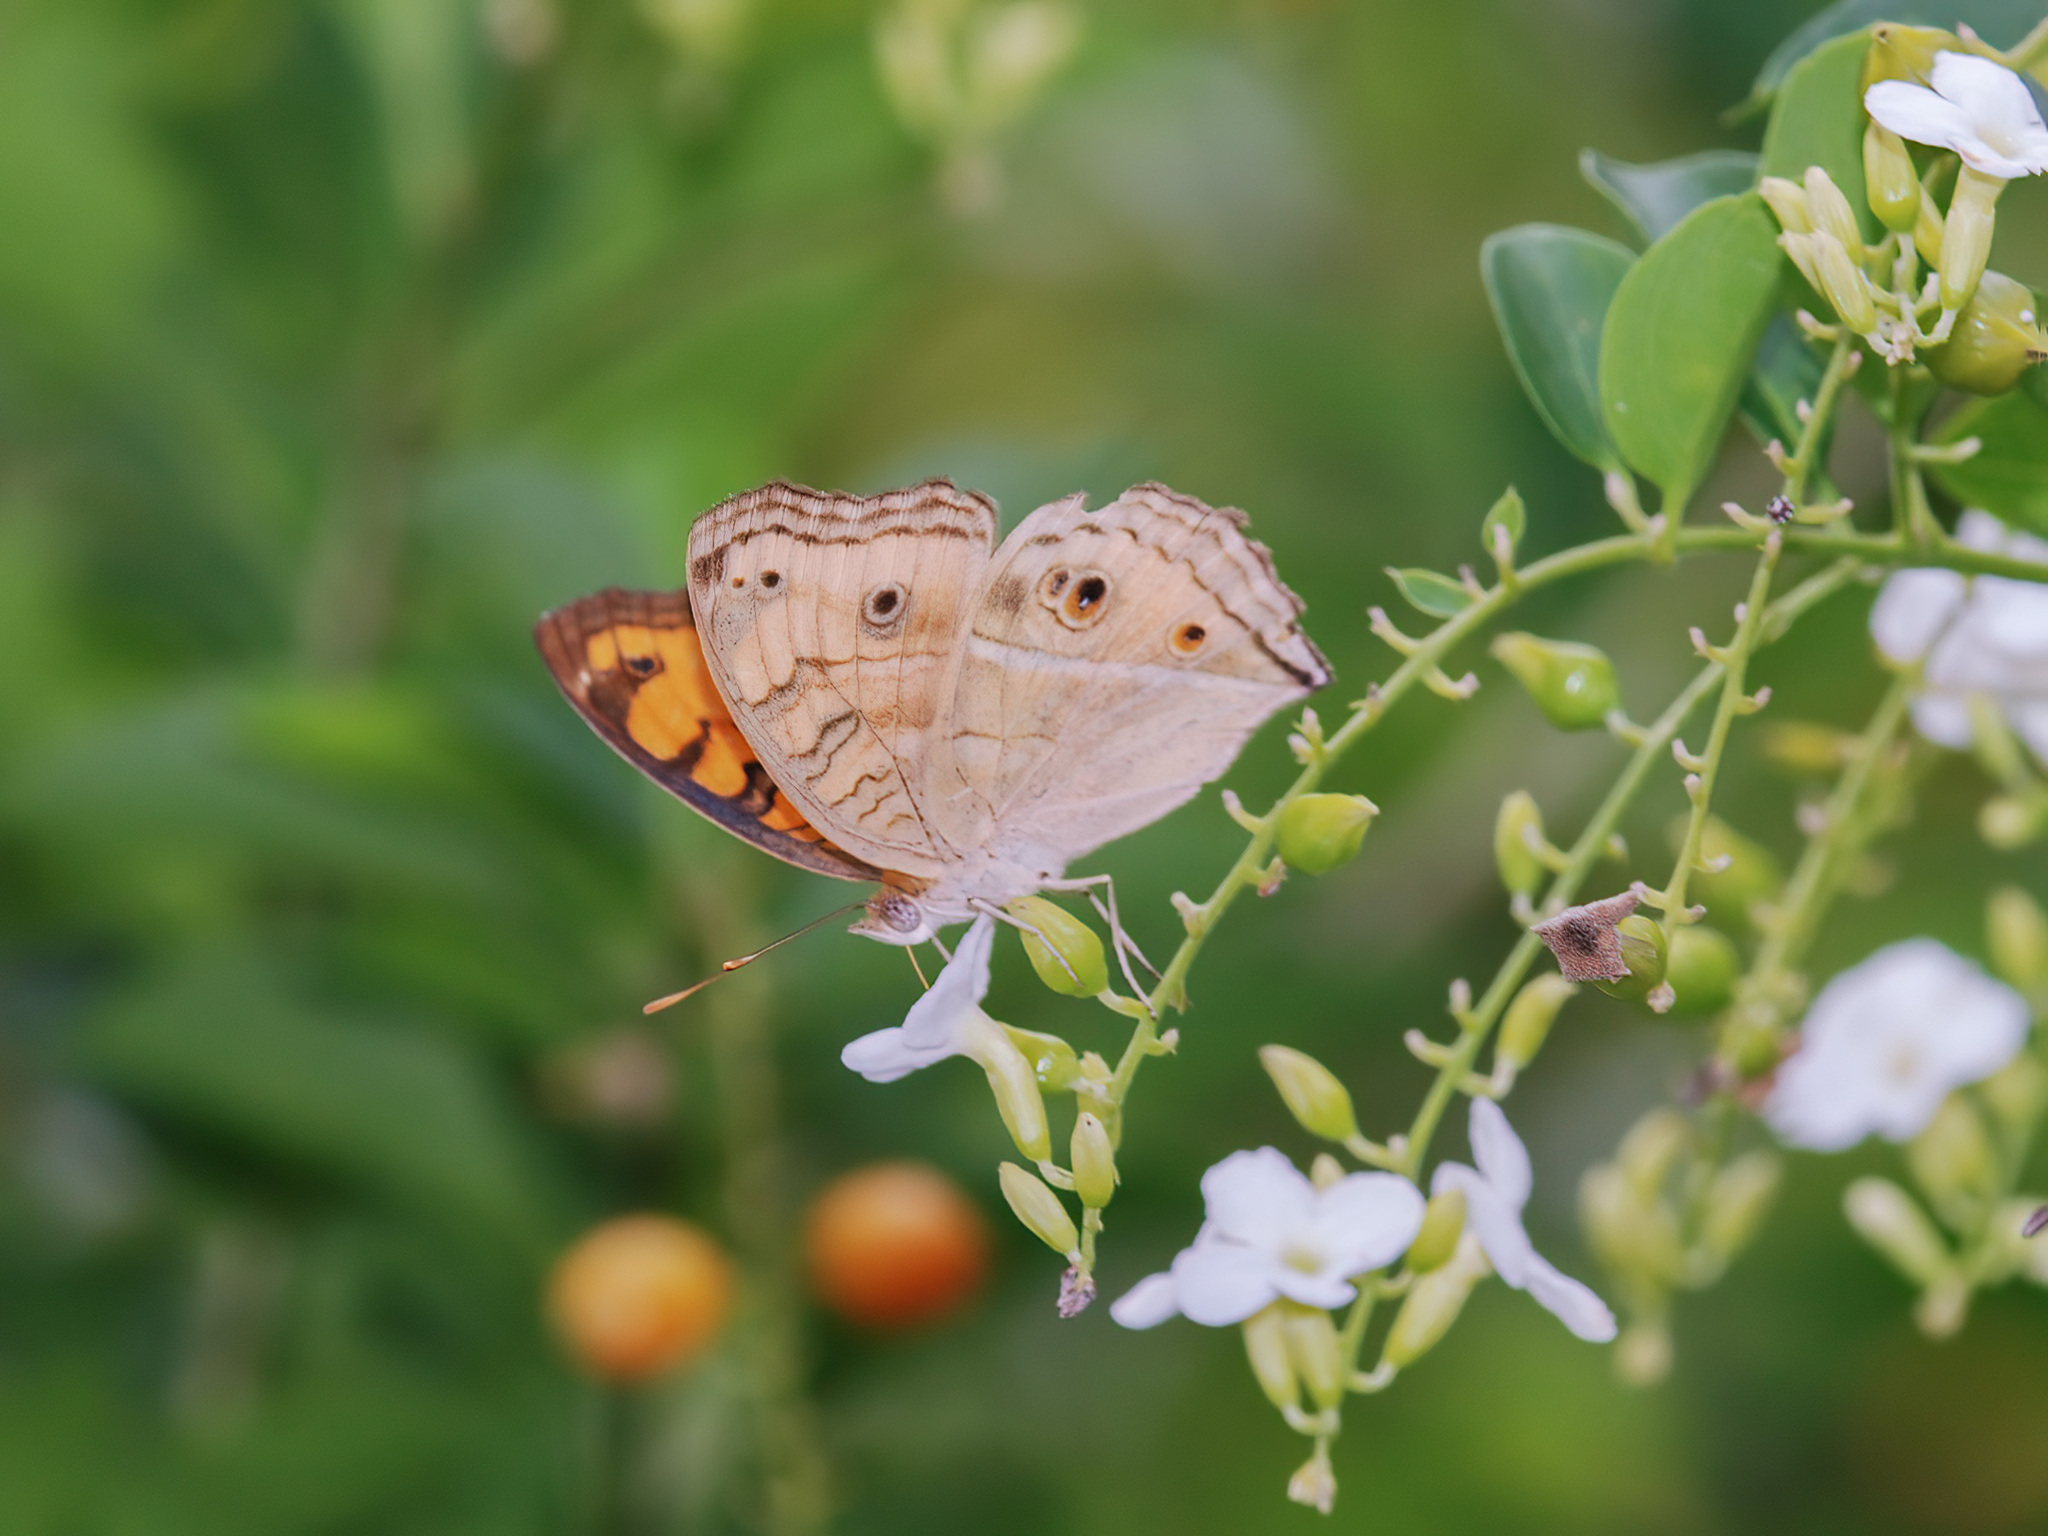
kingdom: Animalia
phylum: Arthropoda
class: Insecta
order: Lepidoptera
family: Nymphalidae
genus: Junonia
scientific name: Junonia almana
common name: Peacock pansy
